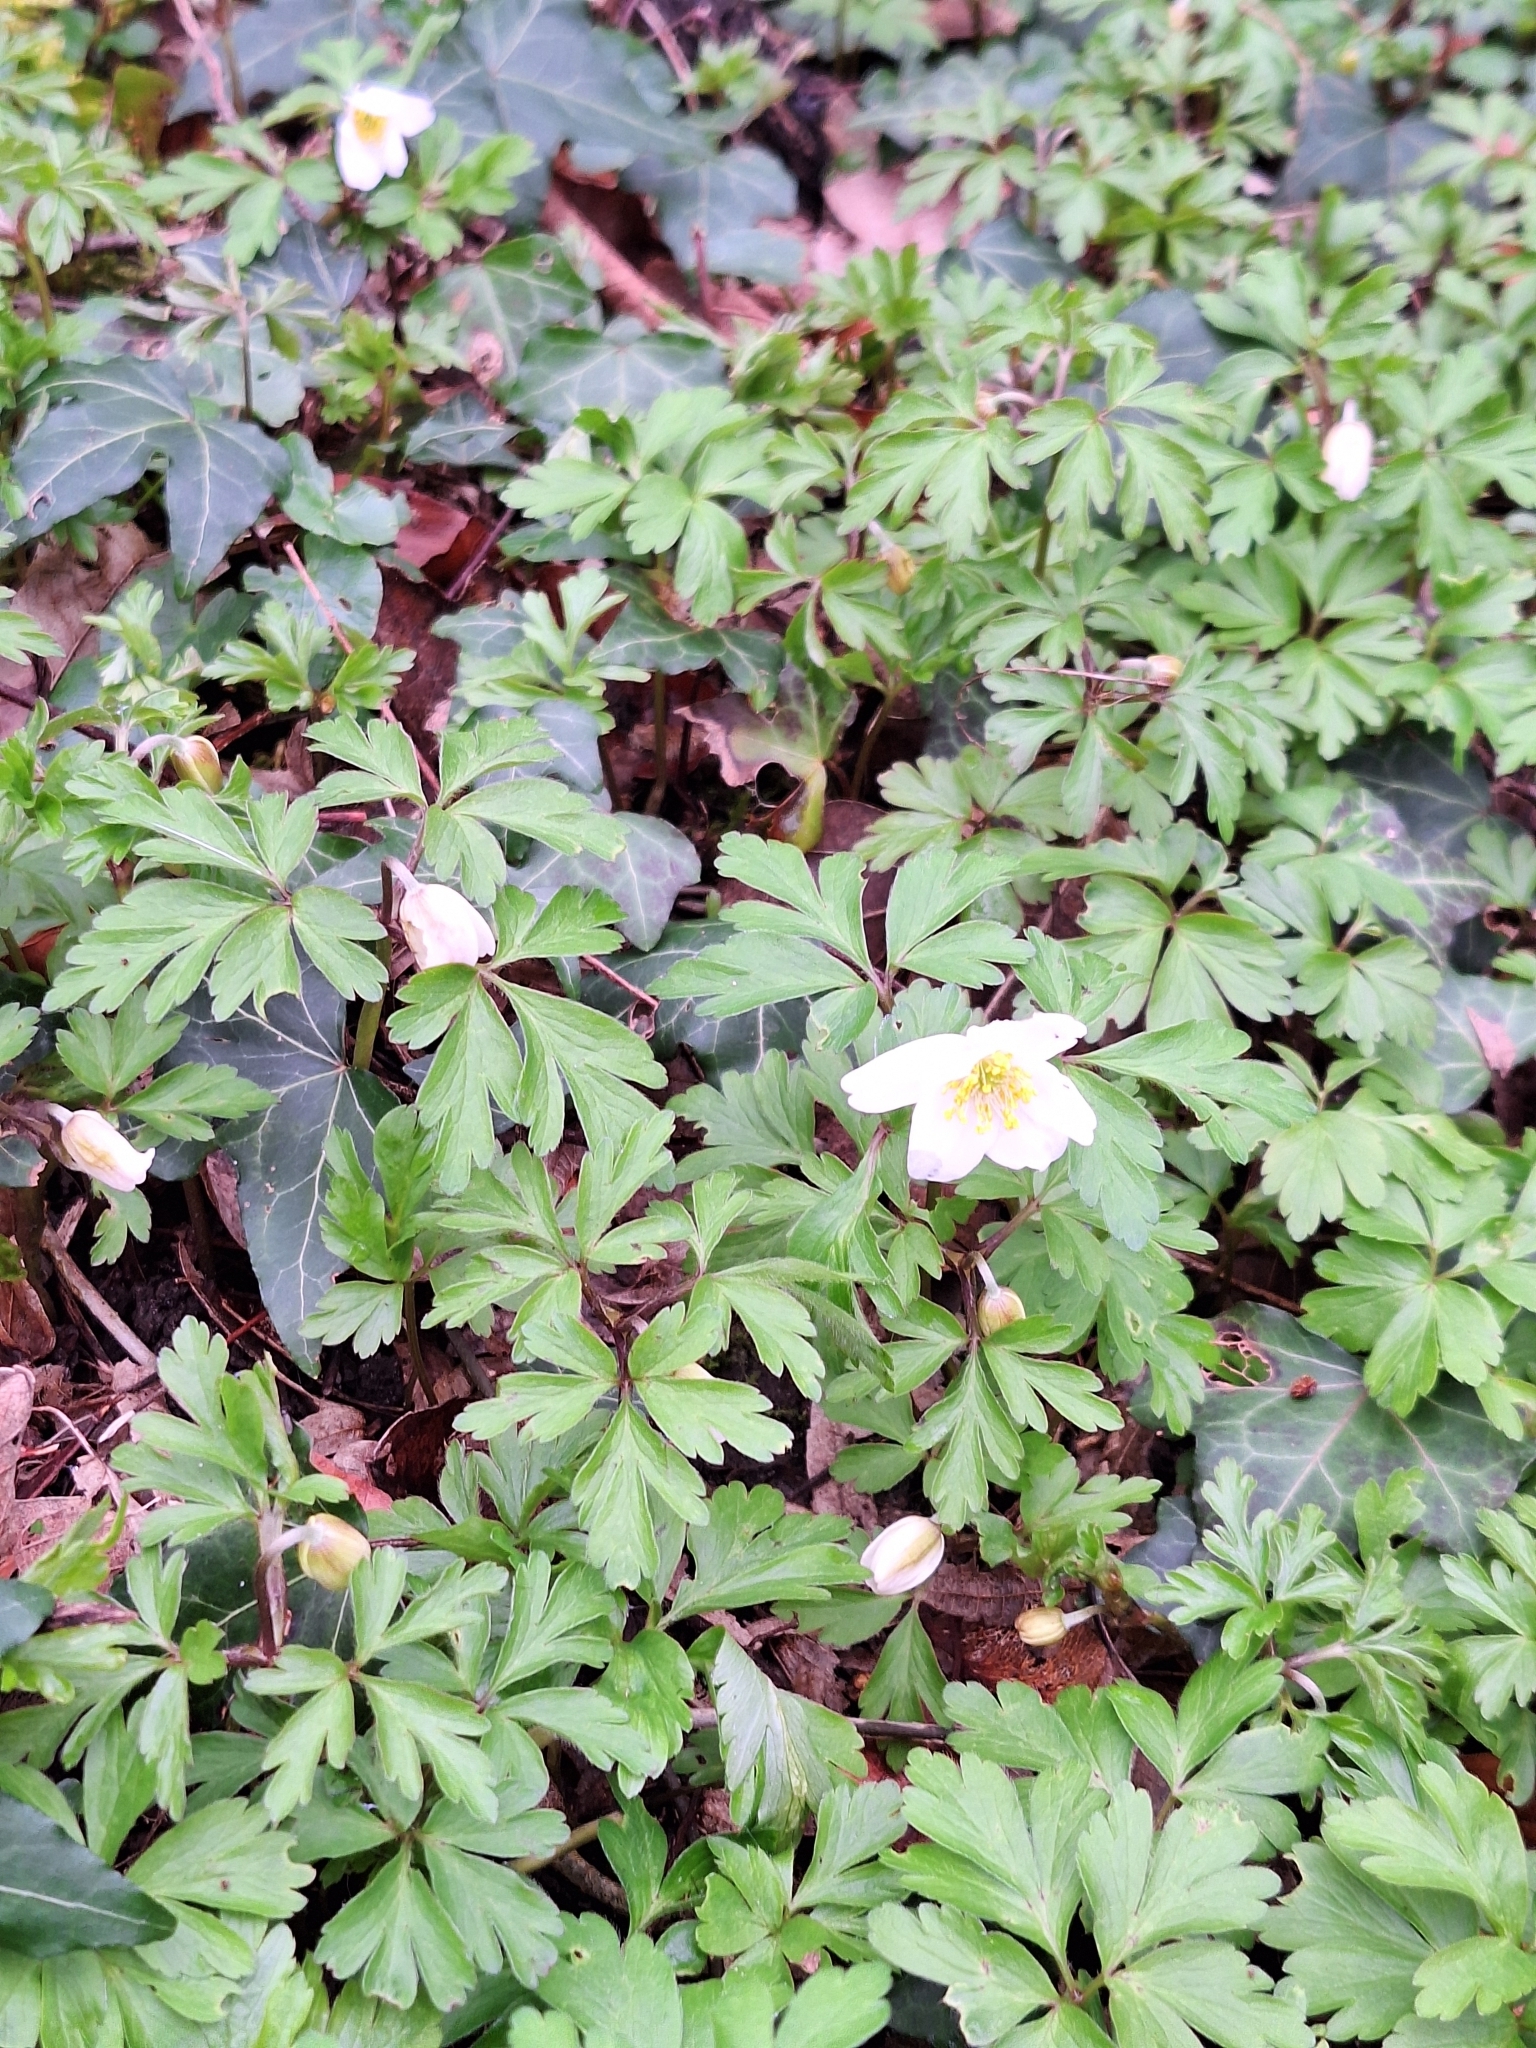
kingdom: Plantae
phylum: Tracheophyta
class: Magnoliopsida
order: Ranunculales
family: Ranunculaceae
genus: Anemone
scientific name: Anemone nemorosa
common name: Wood anemone
